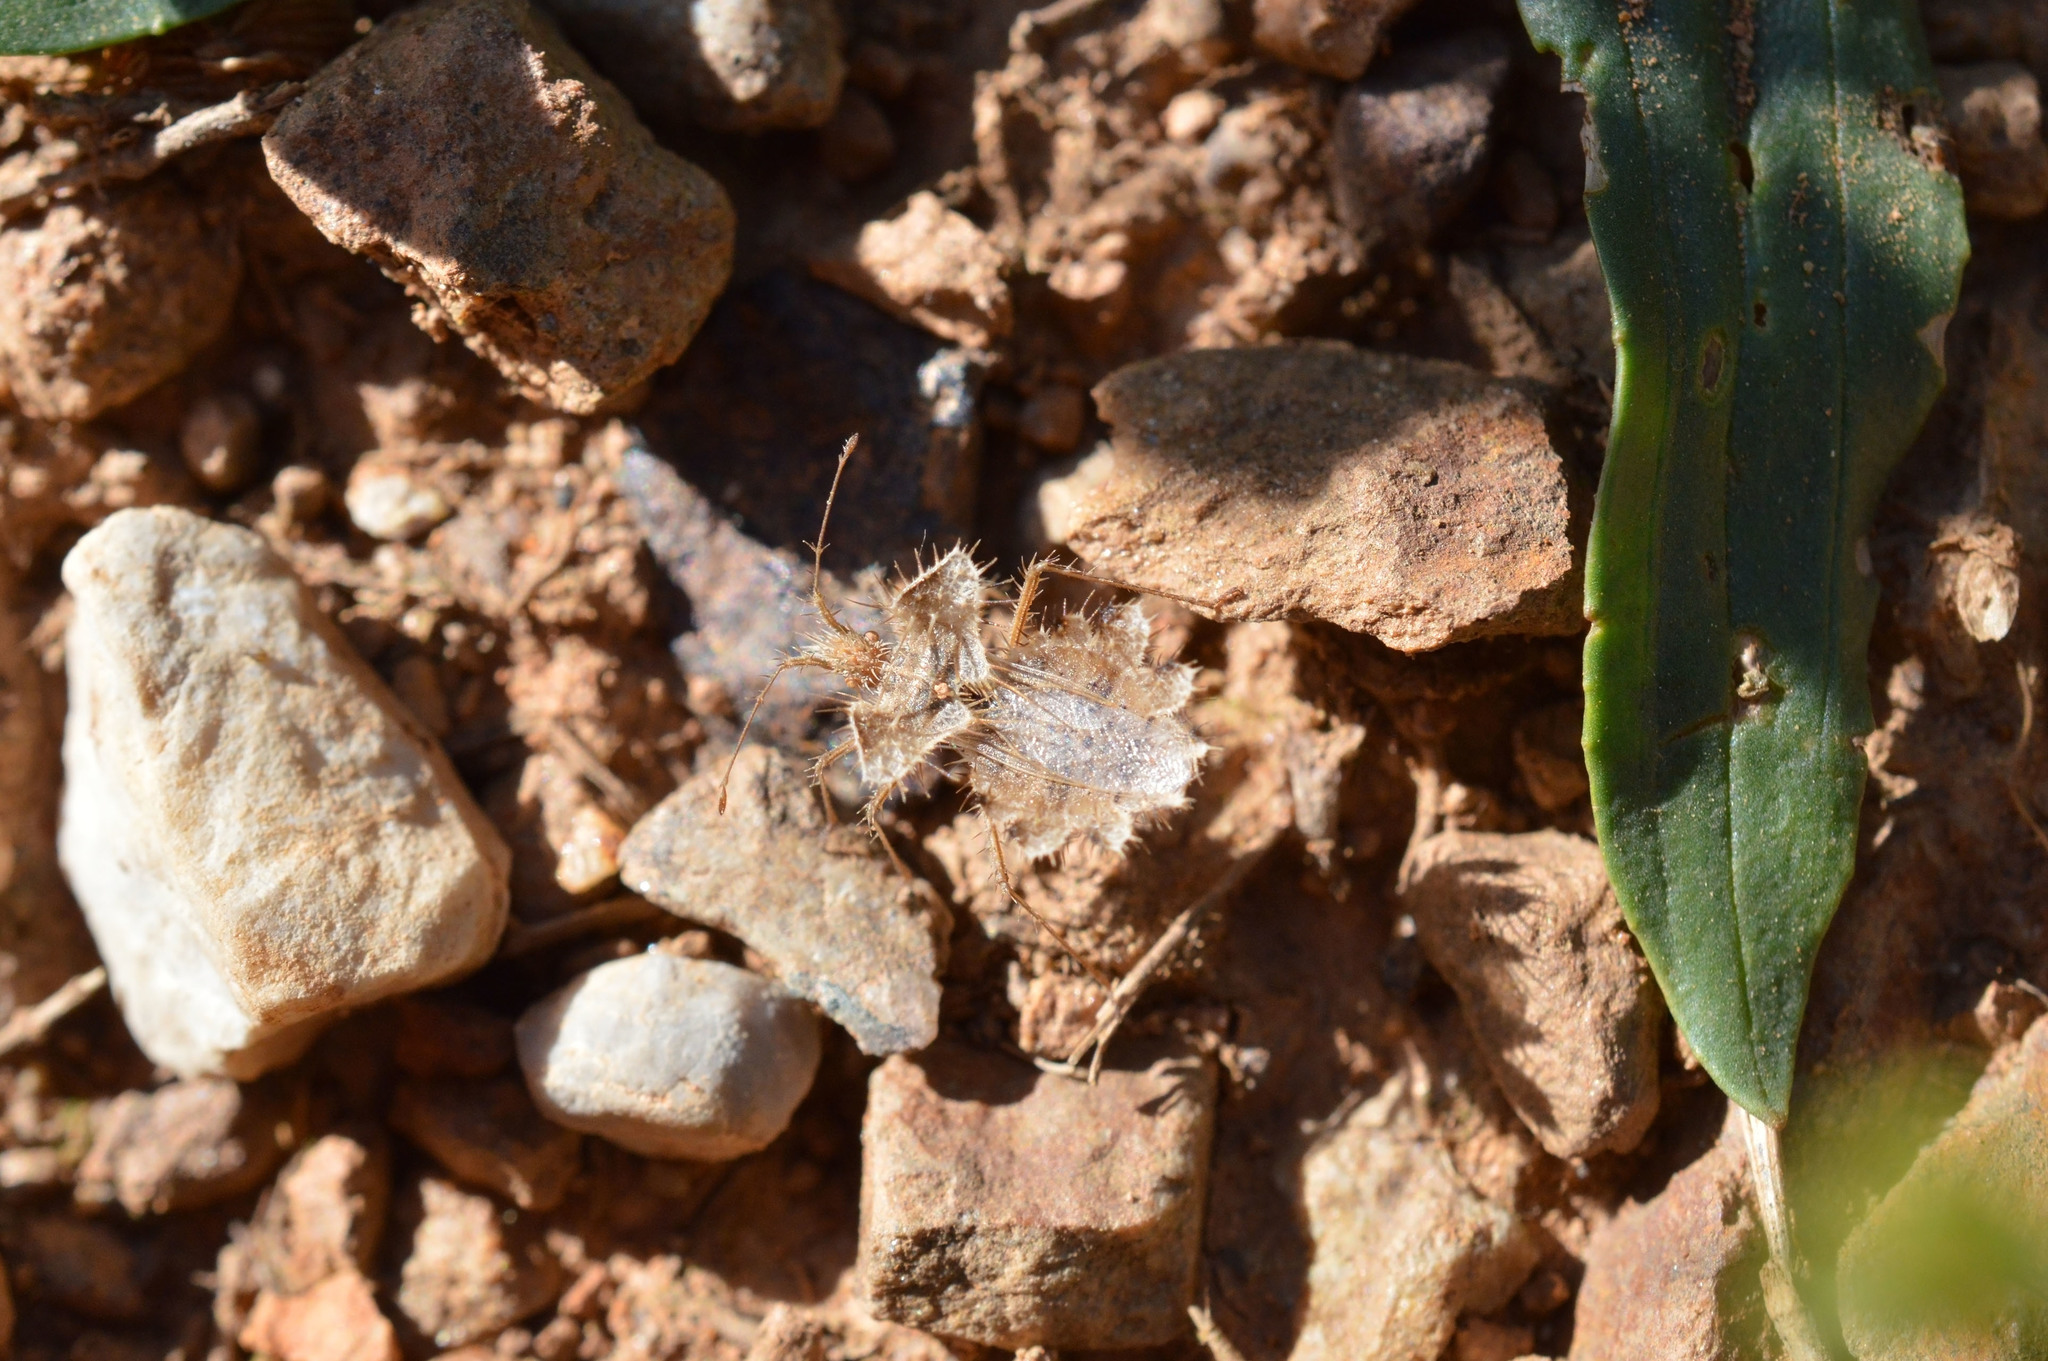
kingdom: Animalia
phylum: Arthropoda
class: Insecta
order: Hemiptera
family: Coreidae
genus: Phyllomorpha
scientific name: Phyllomorpha laciniata
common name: Golden egg bug
